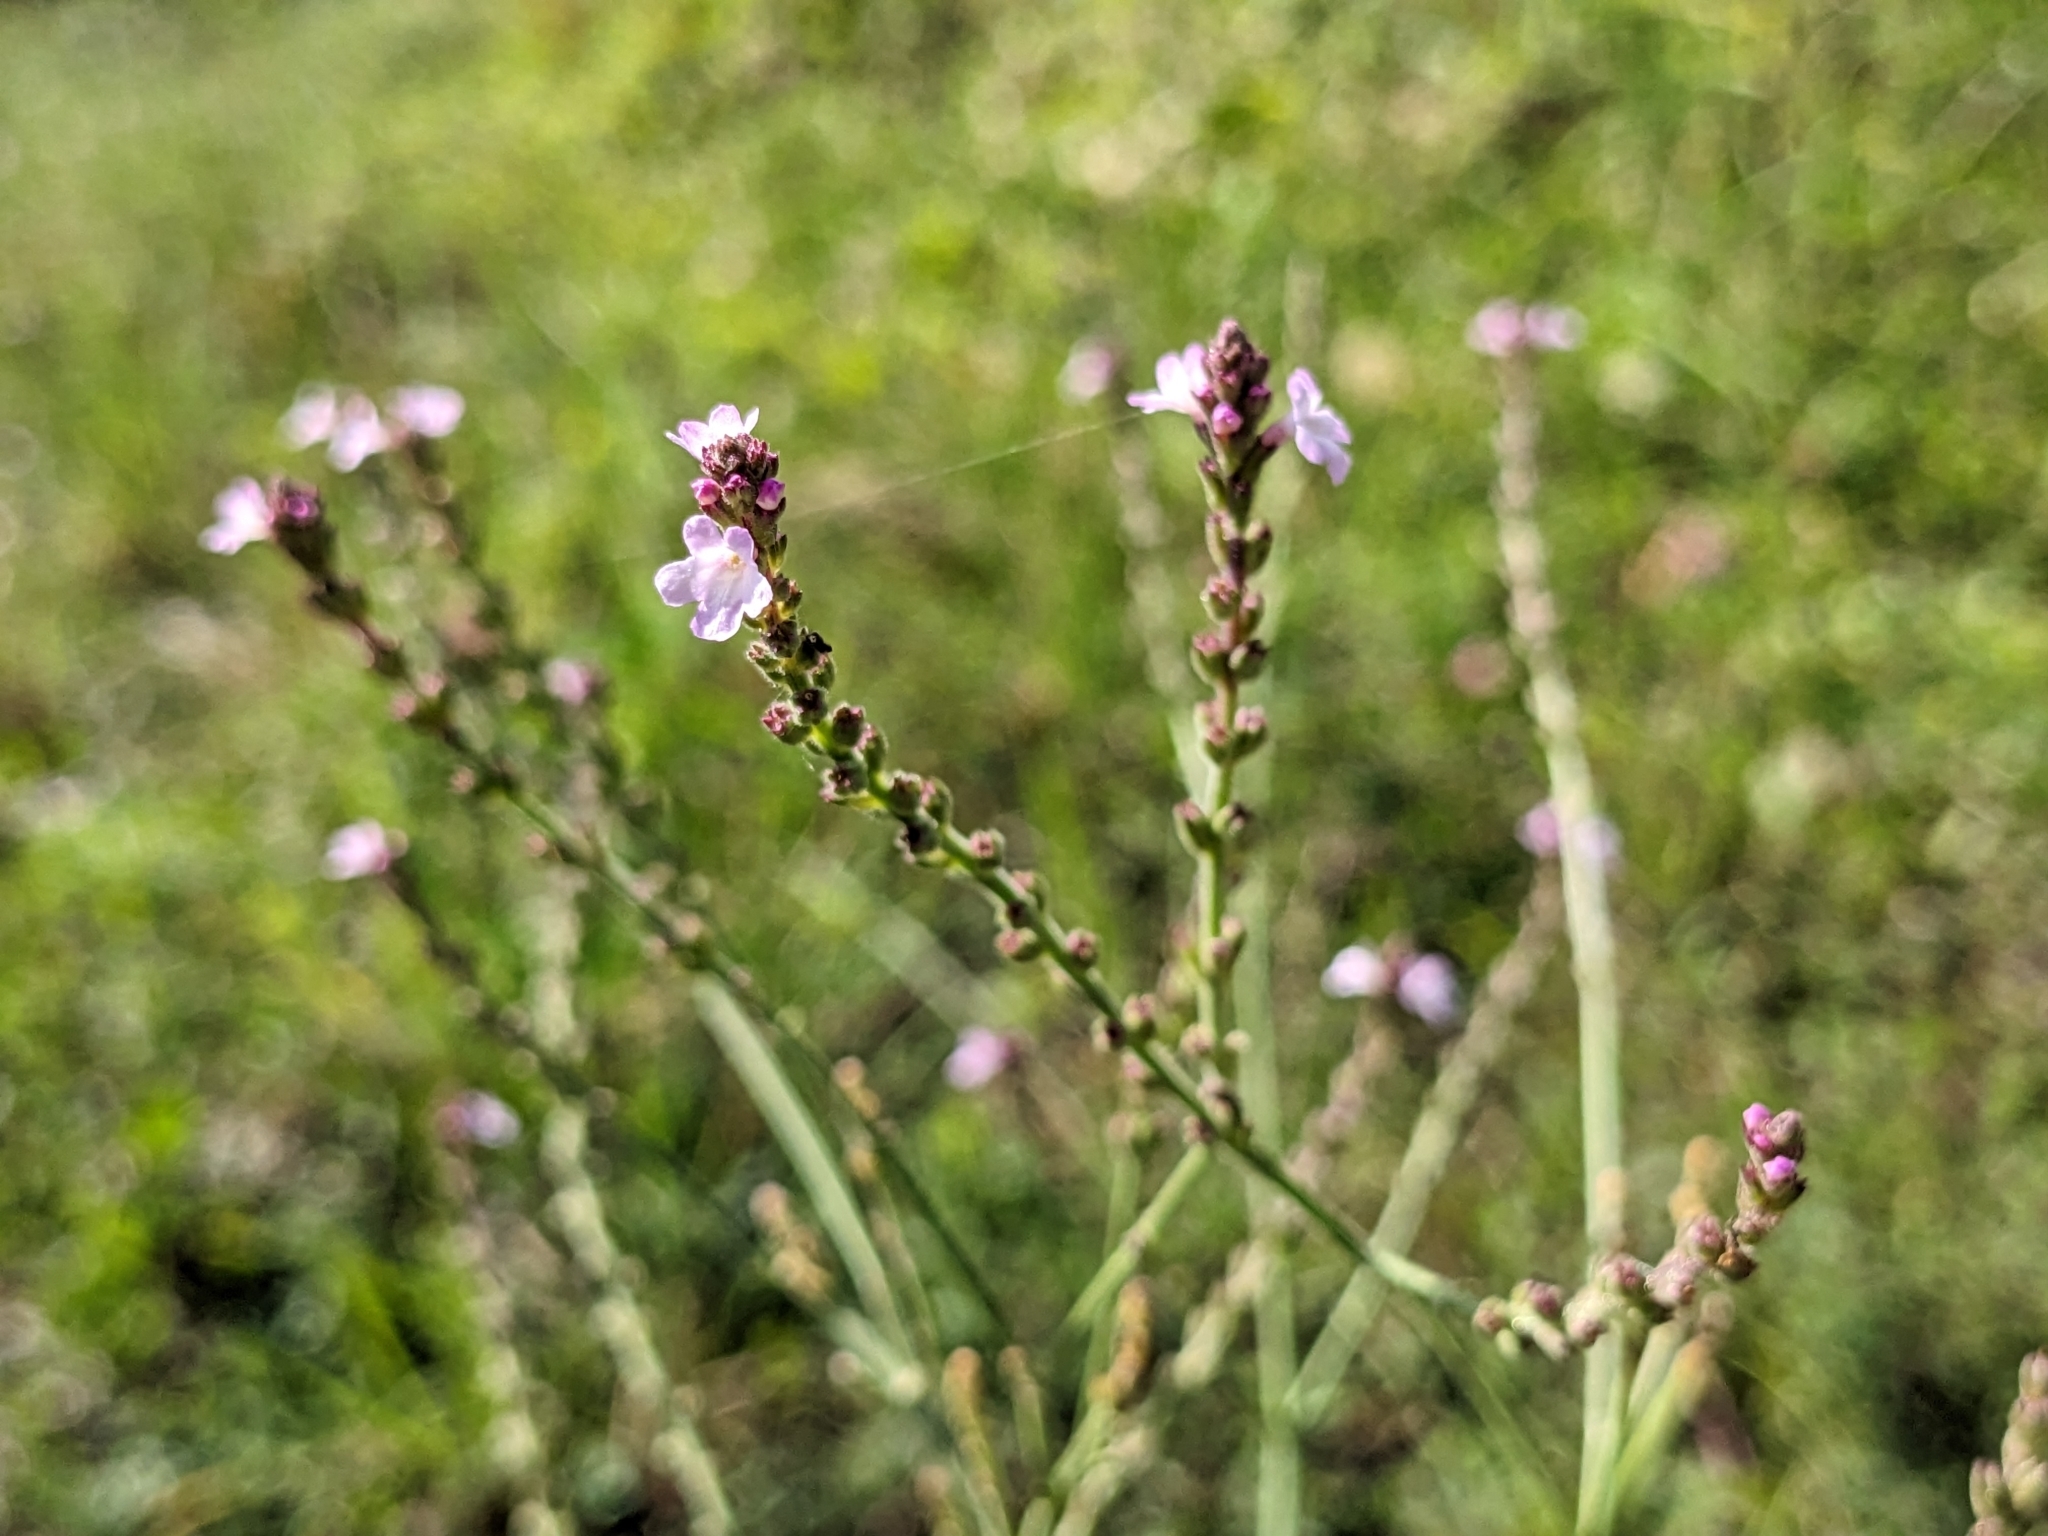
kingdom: Plantae
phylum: Tracheophyta
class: Magnoliopsida
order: Lamiales
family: Verbenaceae
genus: Verbena
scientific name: Verbena officinalis
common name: Vervain
